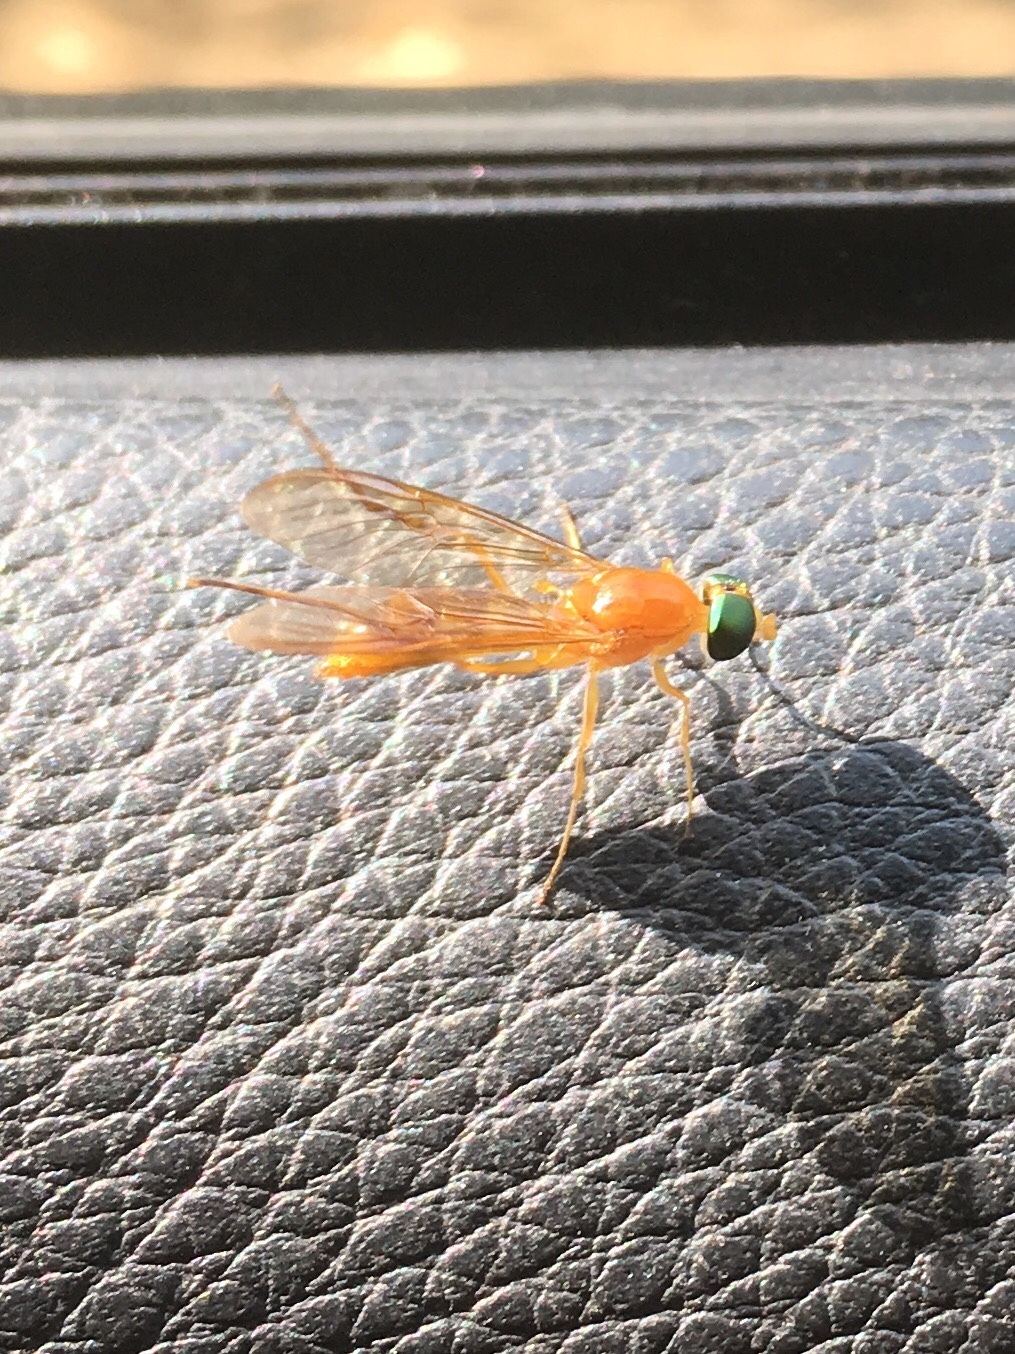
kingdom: Animalia
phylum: Arthropoda
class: Insecta
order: Diptera
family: Stratiomyidae
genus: Ptecticus
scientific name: Ptecticus trivittatus
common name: Compost fly
